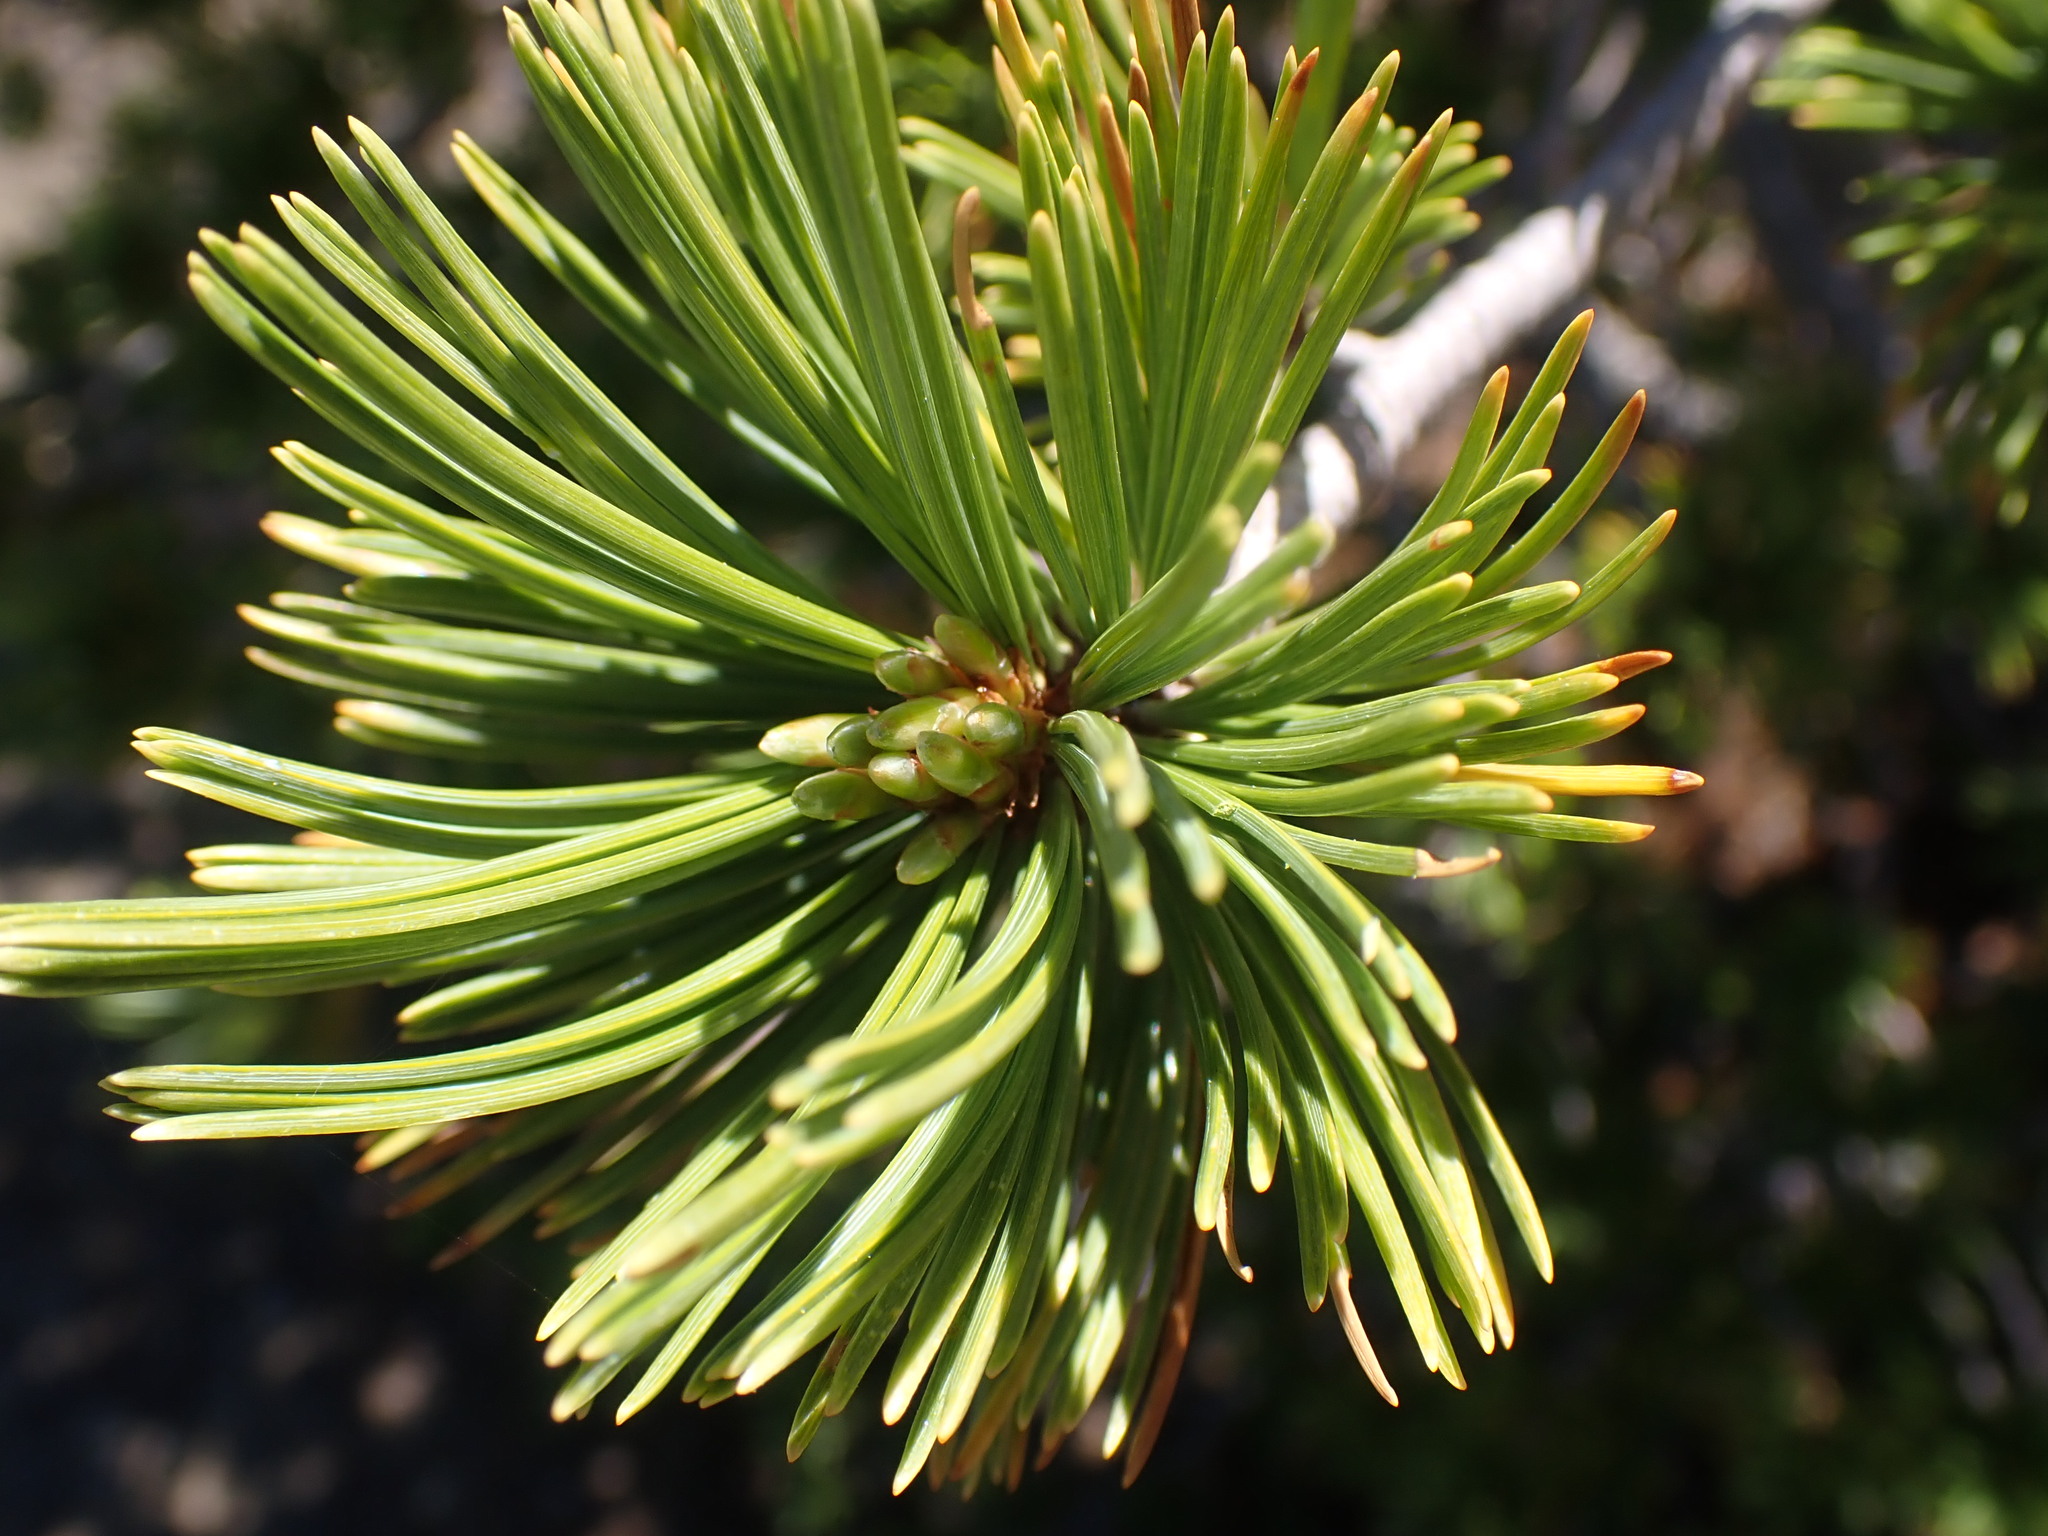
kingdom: Plantae
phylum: Tracheophyta
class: Pinopsida
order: Pinales
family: Pinaceae
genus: Pinus
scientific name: Pinus albicaulis
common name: Whitebark pine
